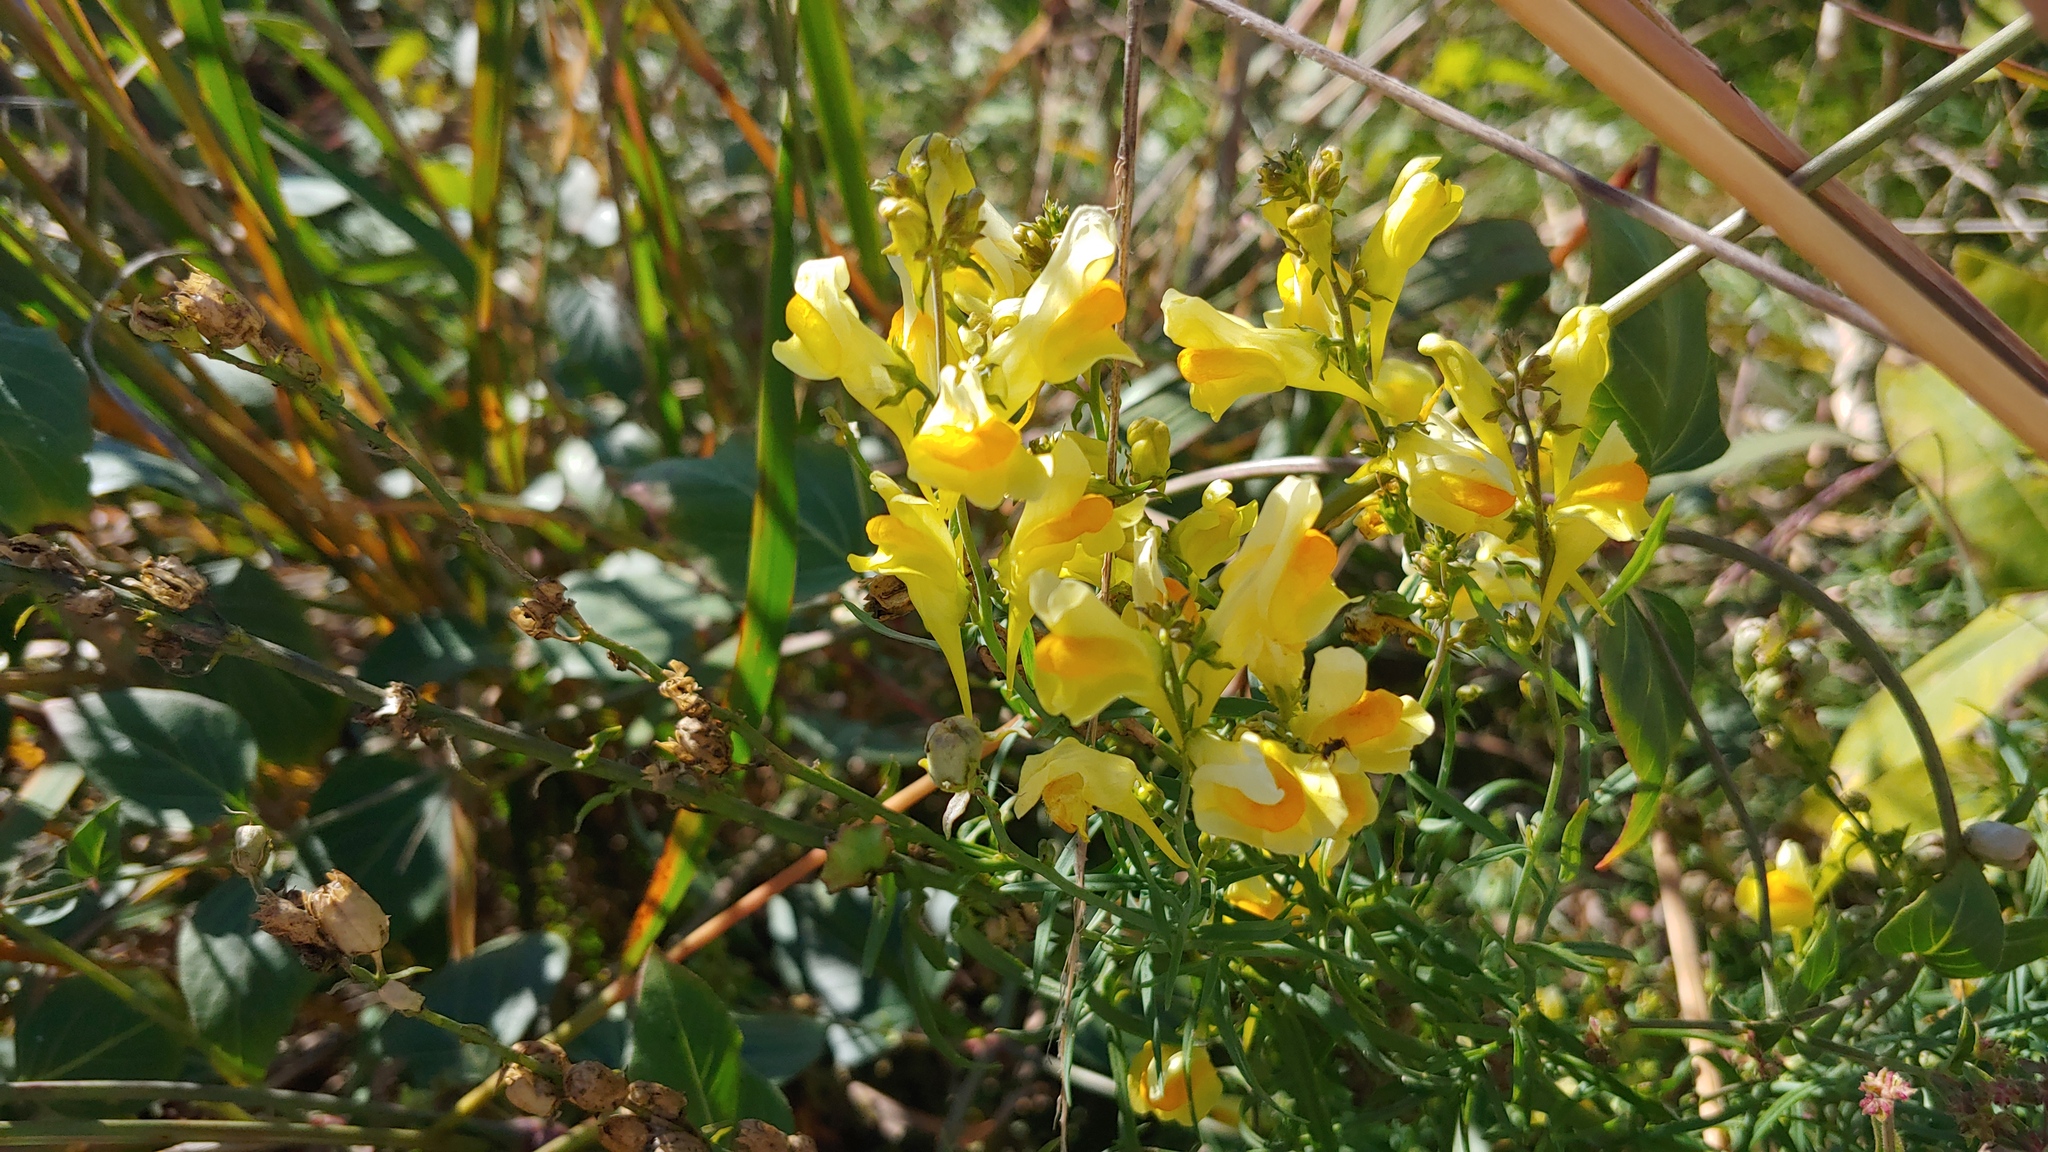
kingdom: Plantae
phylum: Tracheophyta
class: Magnoliopsida
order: Lamiales
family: Plantaginaceae
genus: Linaria
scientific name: Linaria vulgaris
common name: Butter and eggs
